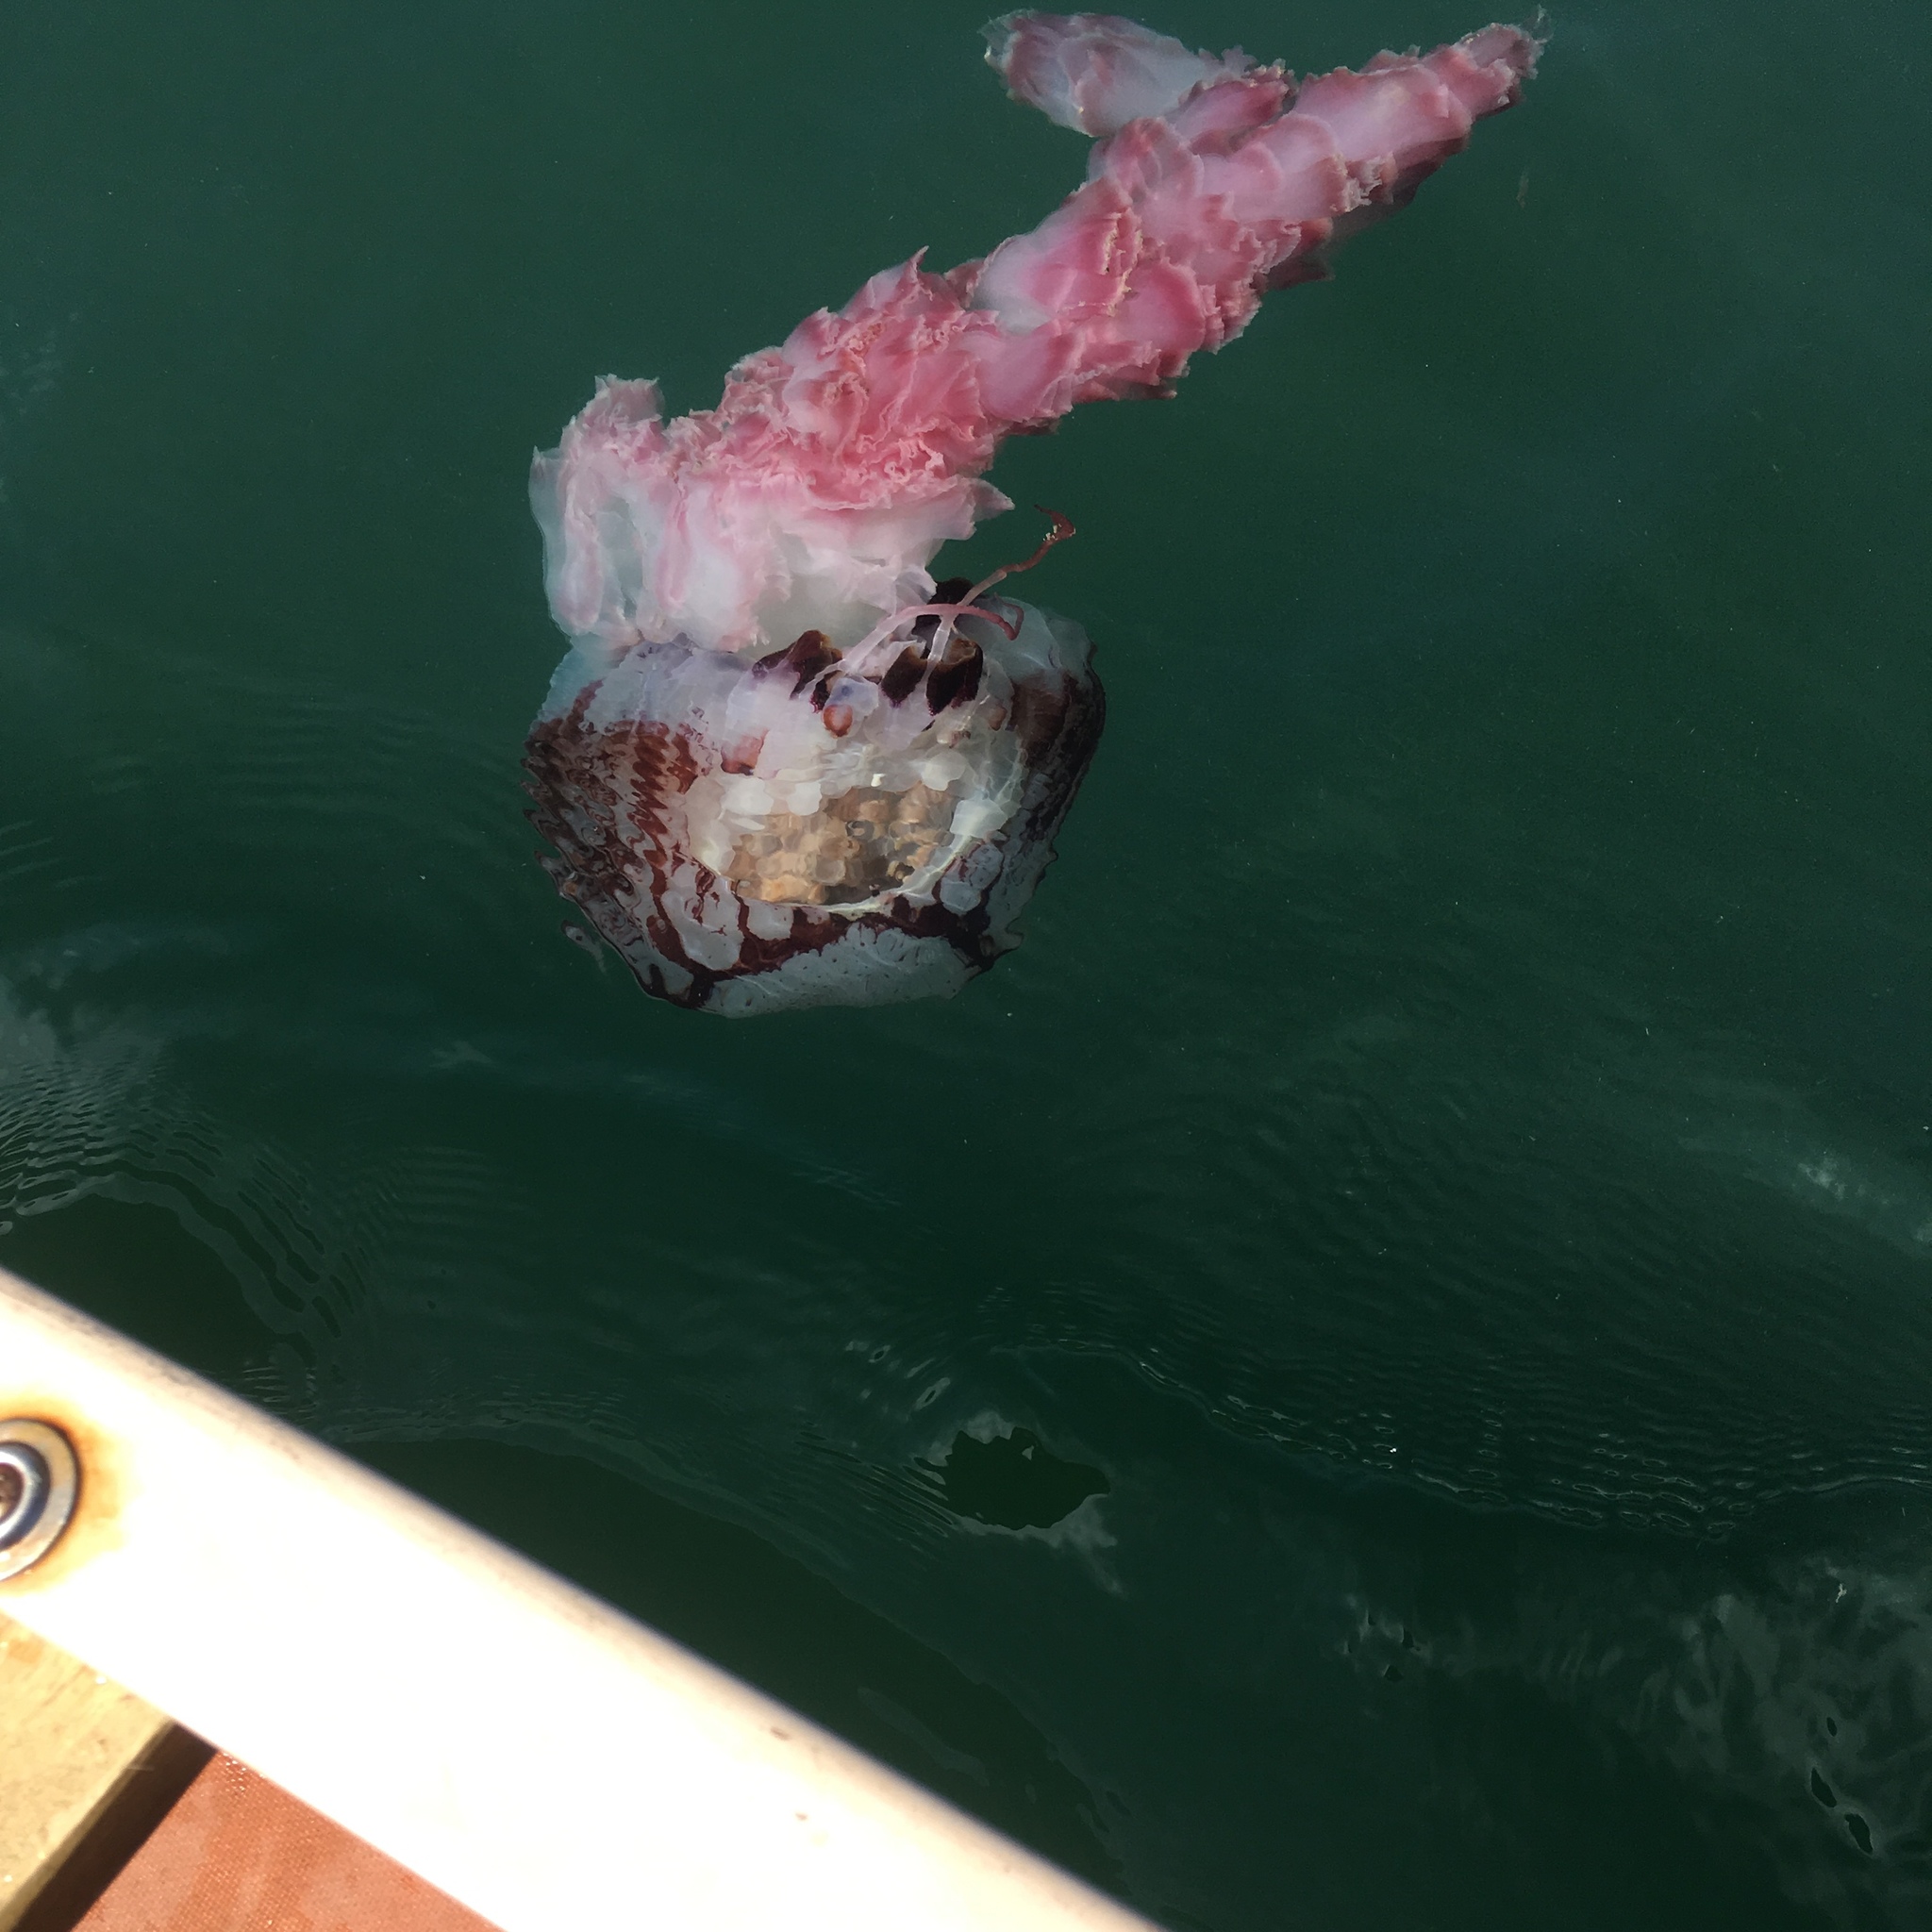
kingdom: Animalia
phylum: Cnidaria
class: Scyphozoa
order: Semaeostomeae
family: Pelagiidae
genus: Chrysaora
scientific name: Chrysaora colorata
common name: Purple-striped jellyfish
